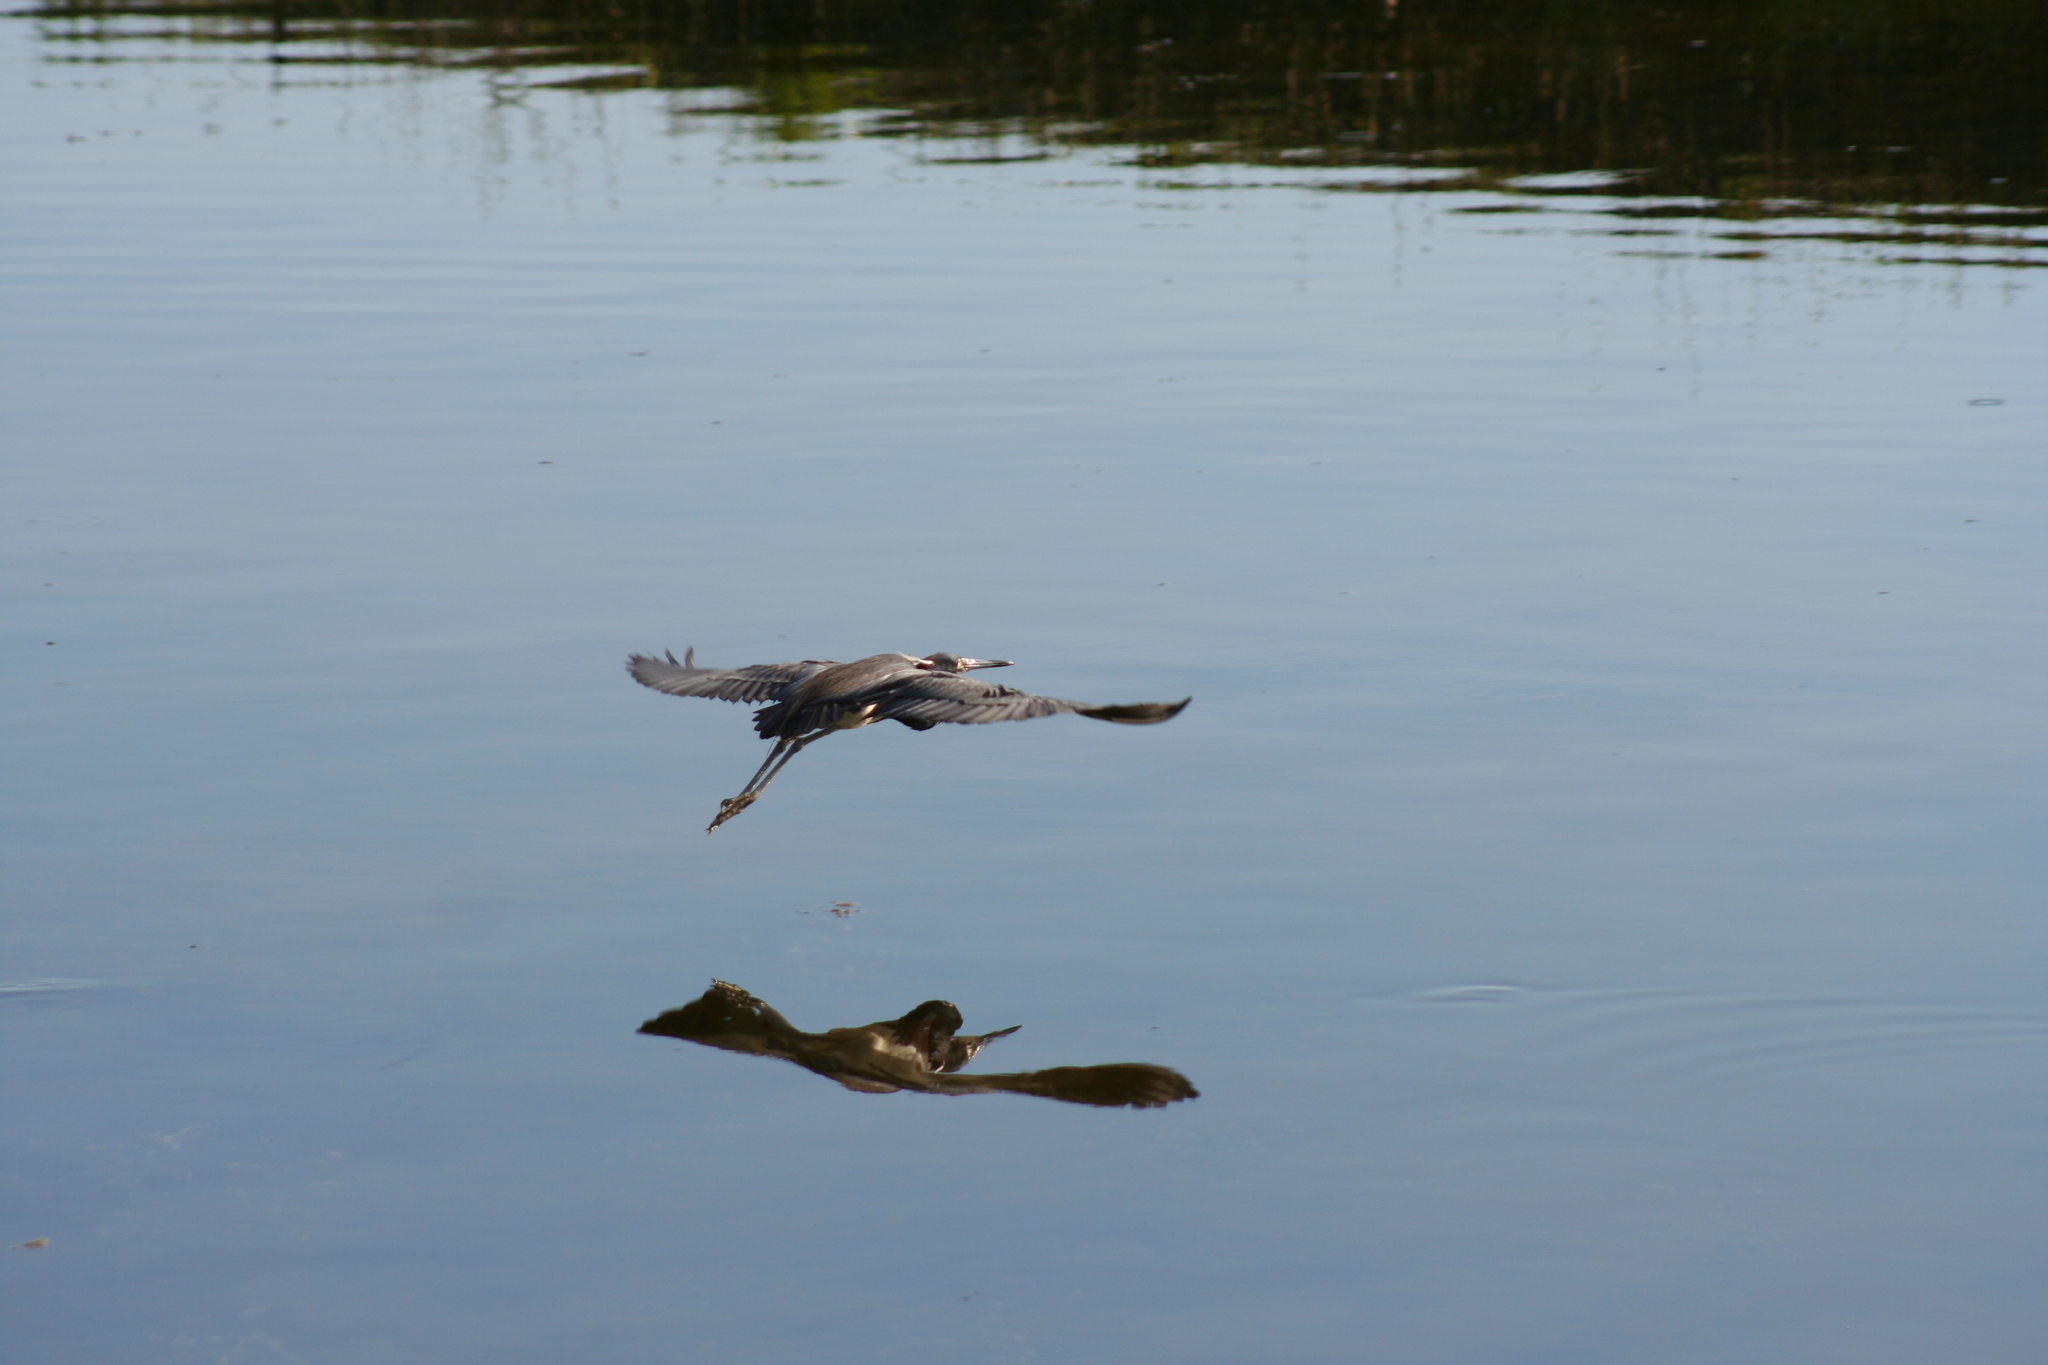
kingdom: Animalia
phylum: Chordata
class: Aves
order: Pelecaniformes
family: Ardeidae
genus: Egretta
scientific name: Egretta tricolor
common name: Tricolored heron
